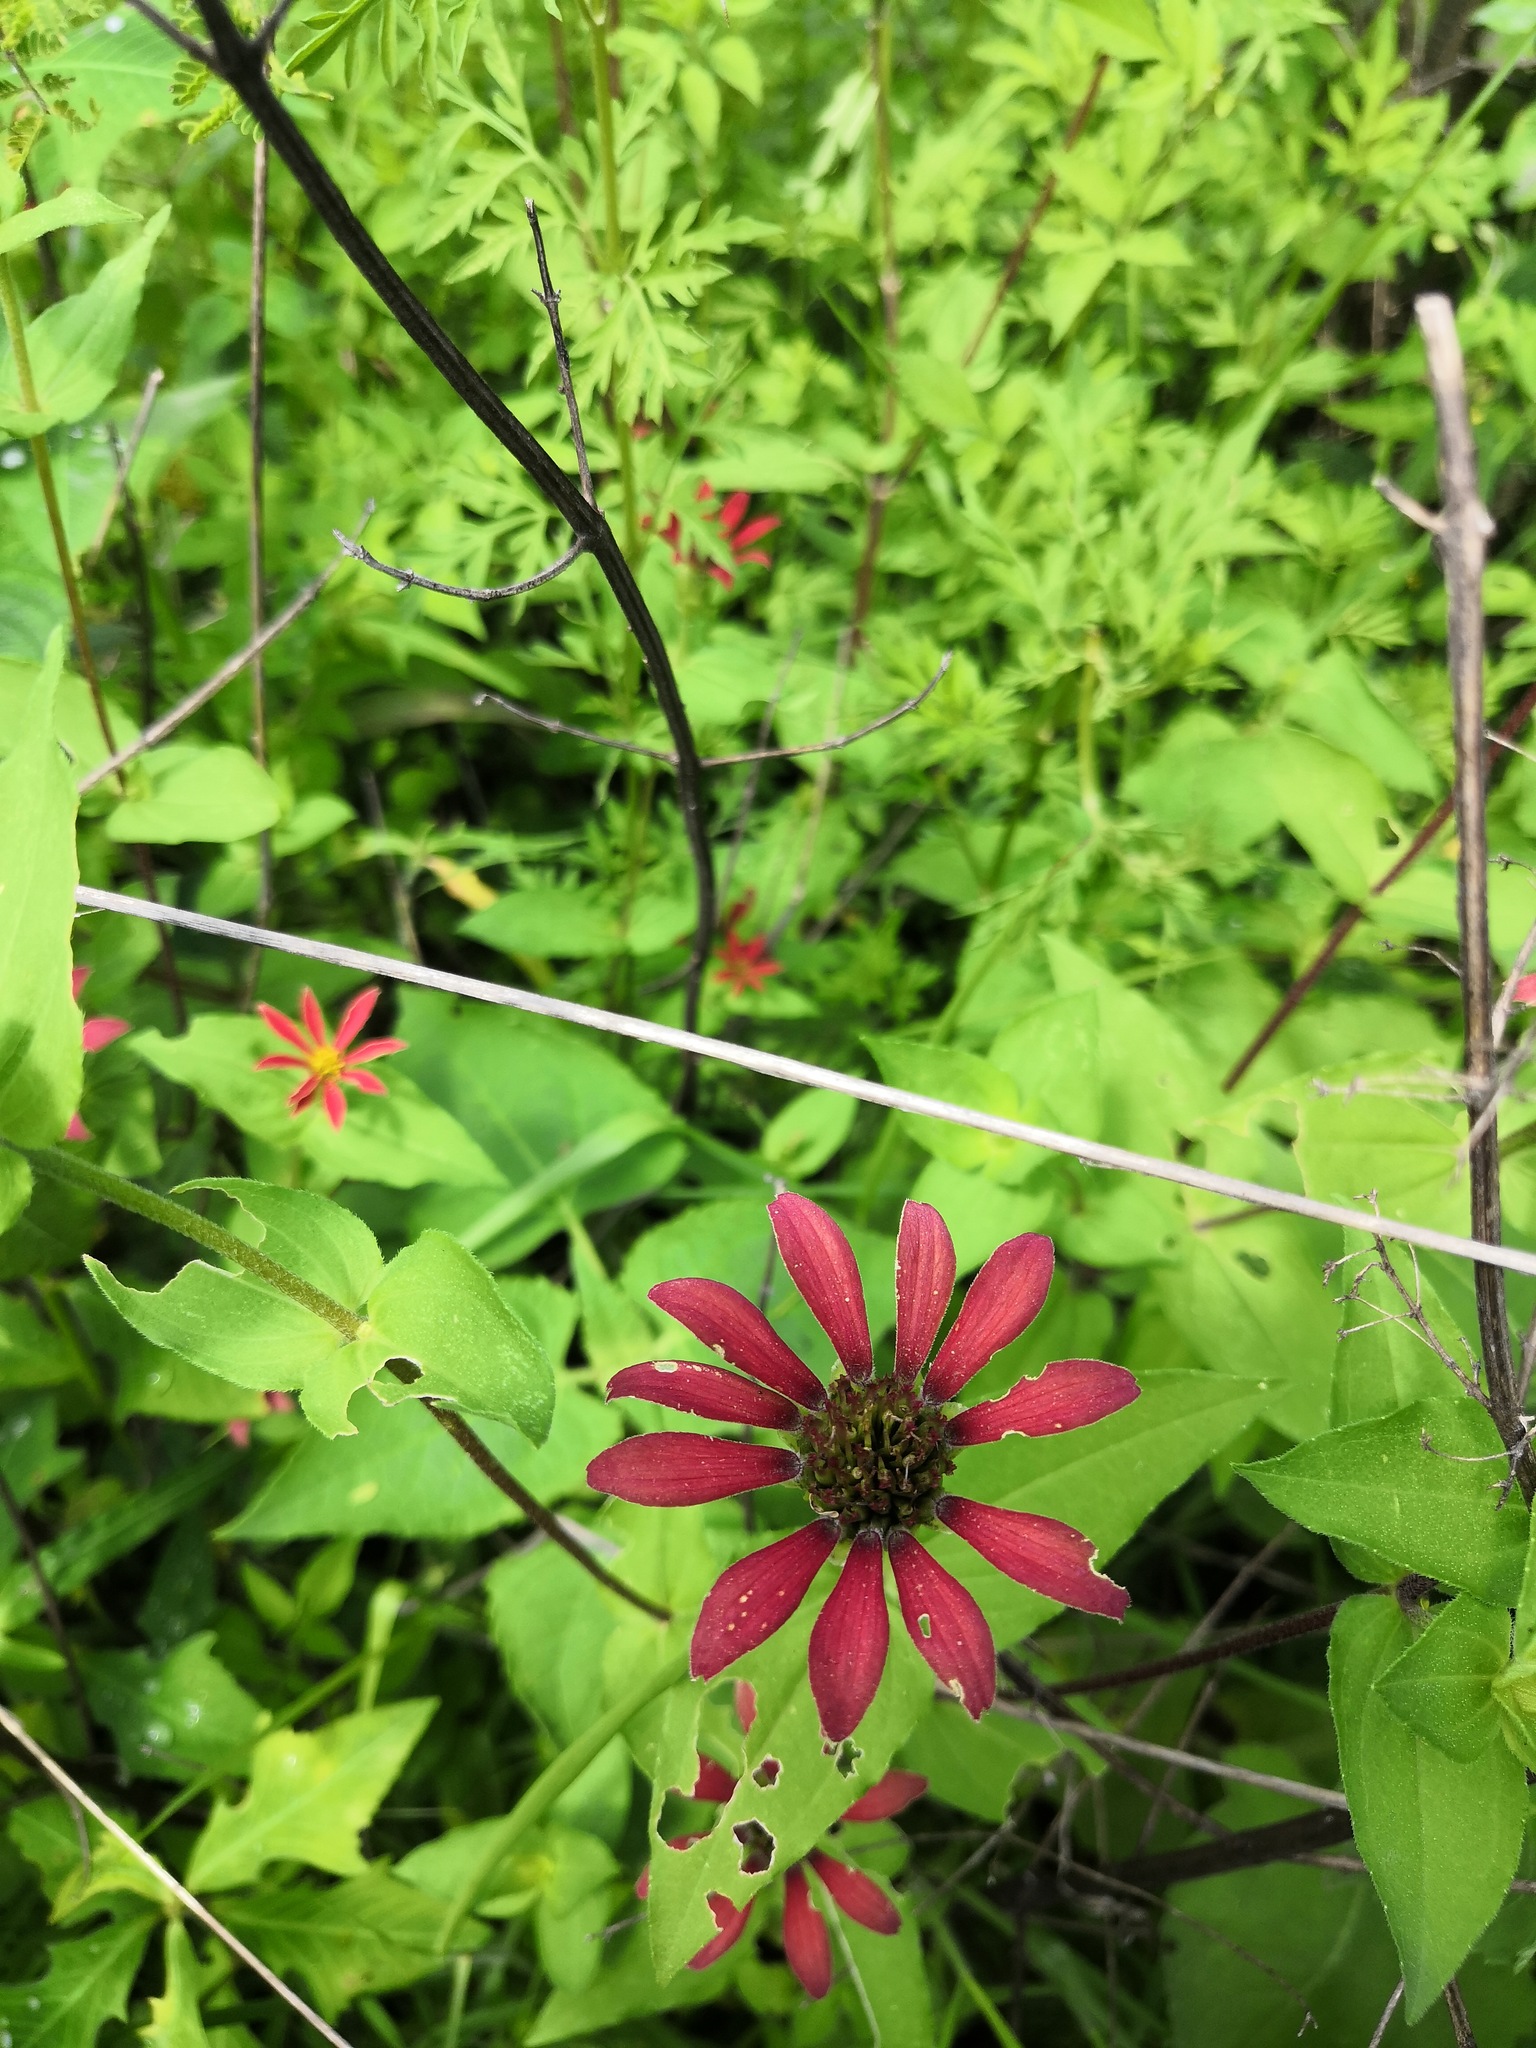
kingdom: Plantae
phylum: Tracheophyta
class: Magnoliopsida
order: Asterales
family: Asteraceae
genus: Zinnia
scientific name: Zinnia peruviana
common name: Peruvian zinnia
